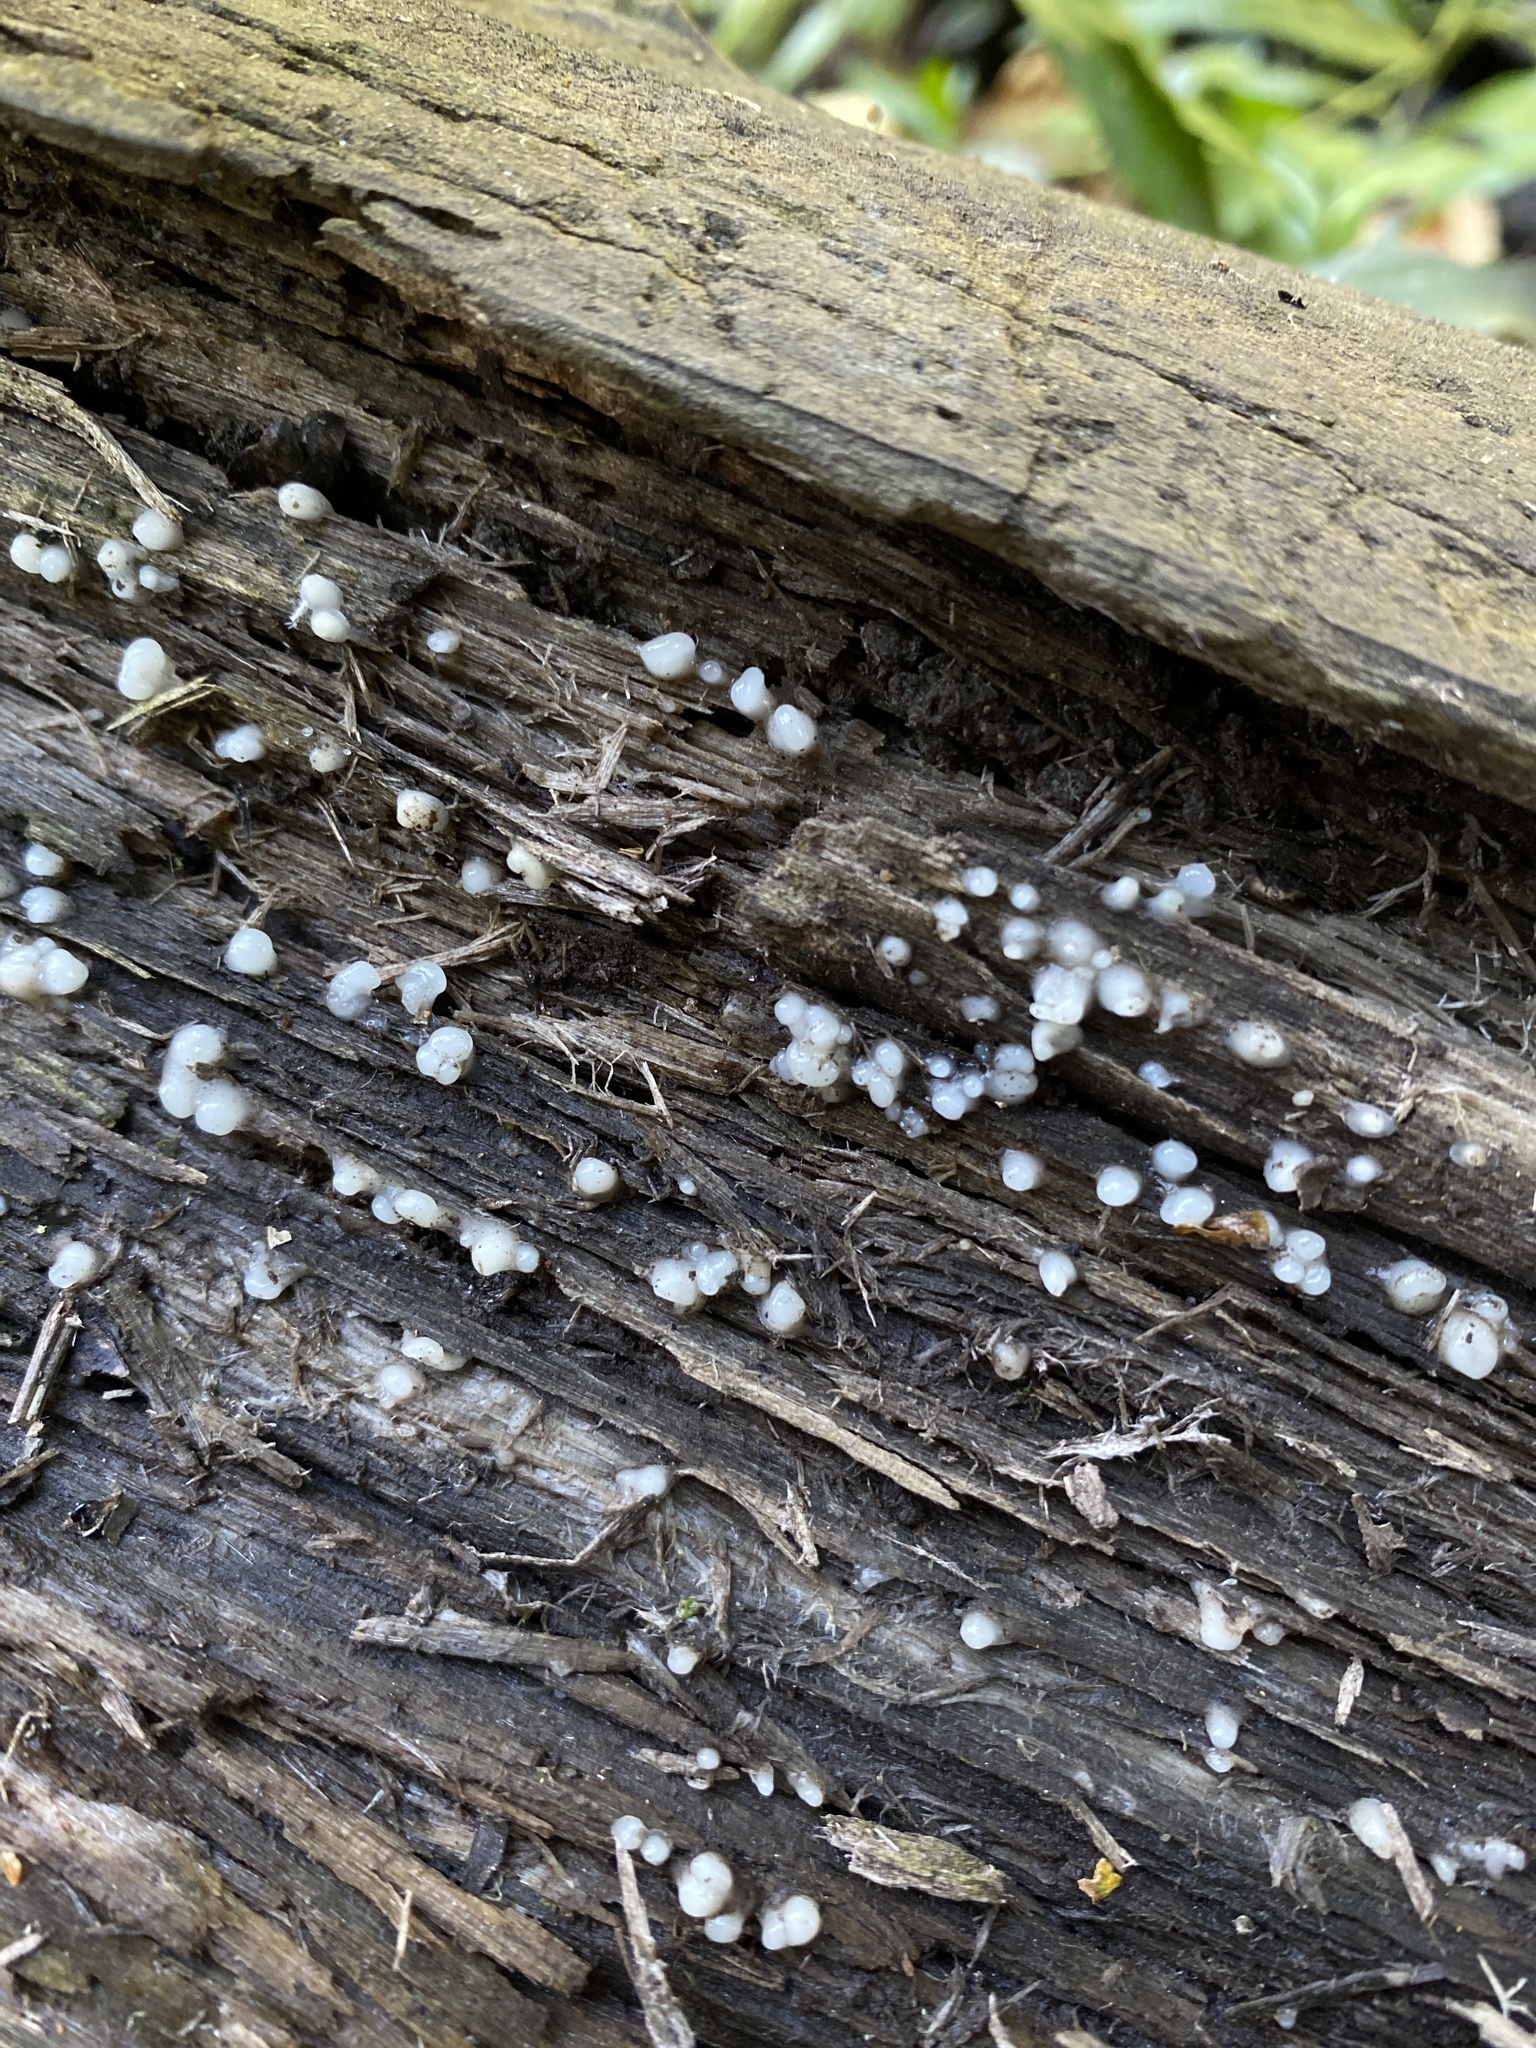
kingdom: Fungi
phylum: Basidiomycota
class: Atractiellomycetes
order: Atractiellales
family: Phleogenaceae
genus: Helicogloea
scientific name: Helicogloea compressa
